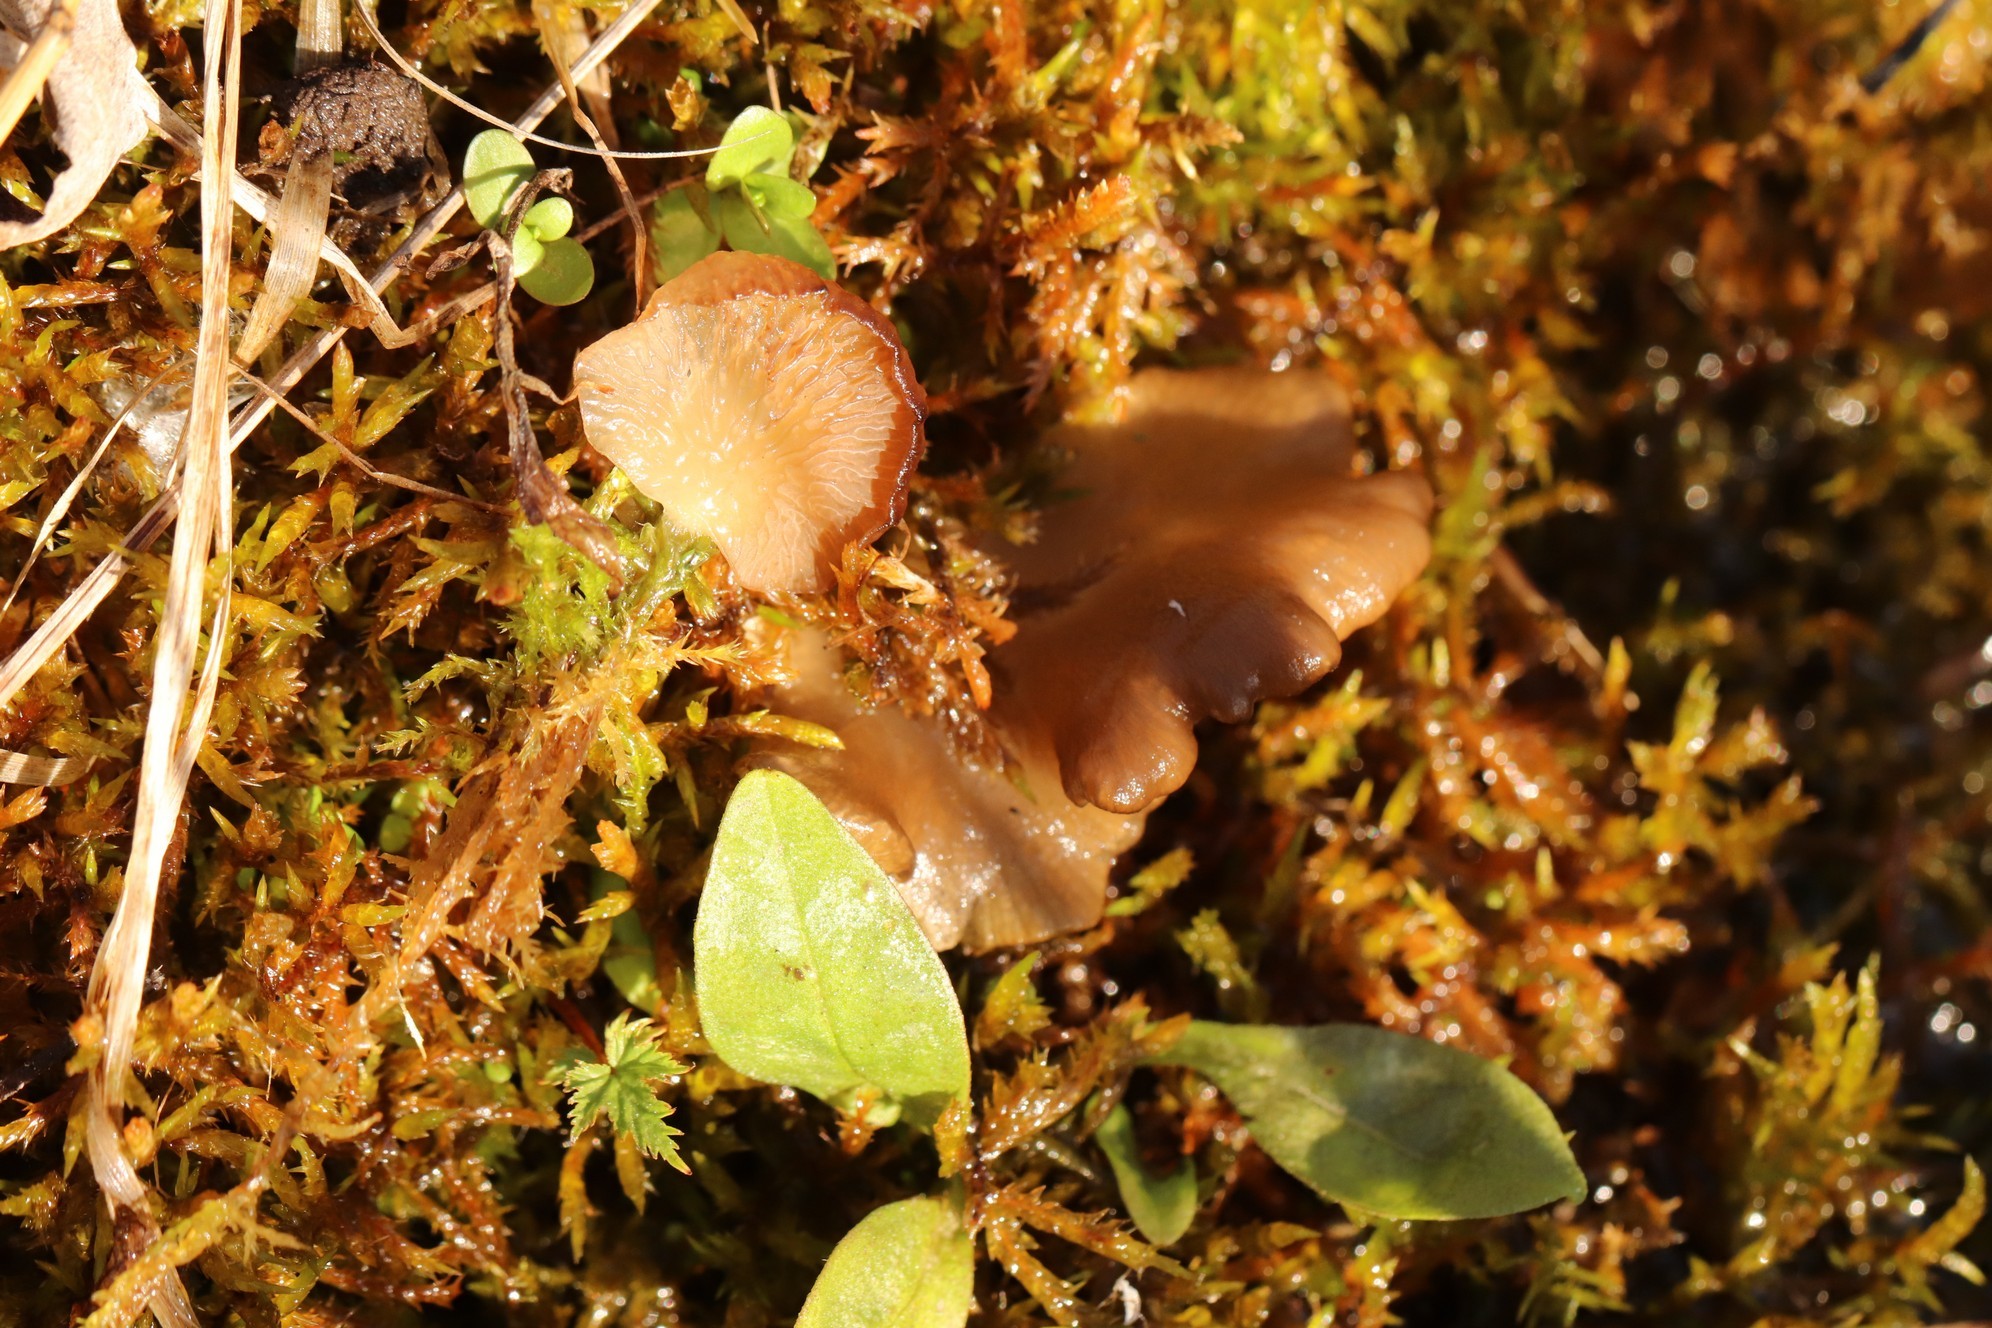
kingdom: Fungi
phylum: Basidiomycota
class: Agaricomycetes
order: Agaricales
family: Hygrophoraceae
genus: Arrhenia
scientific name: Arrhenia lobata
